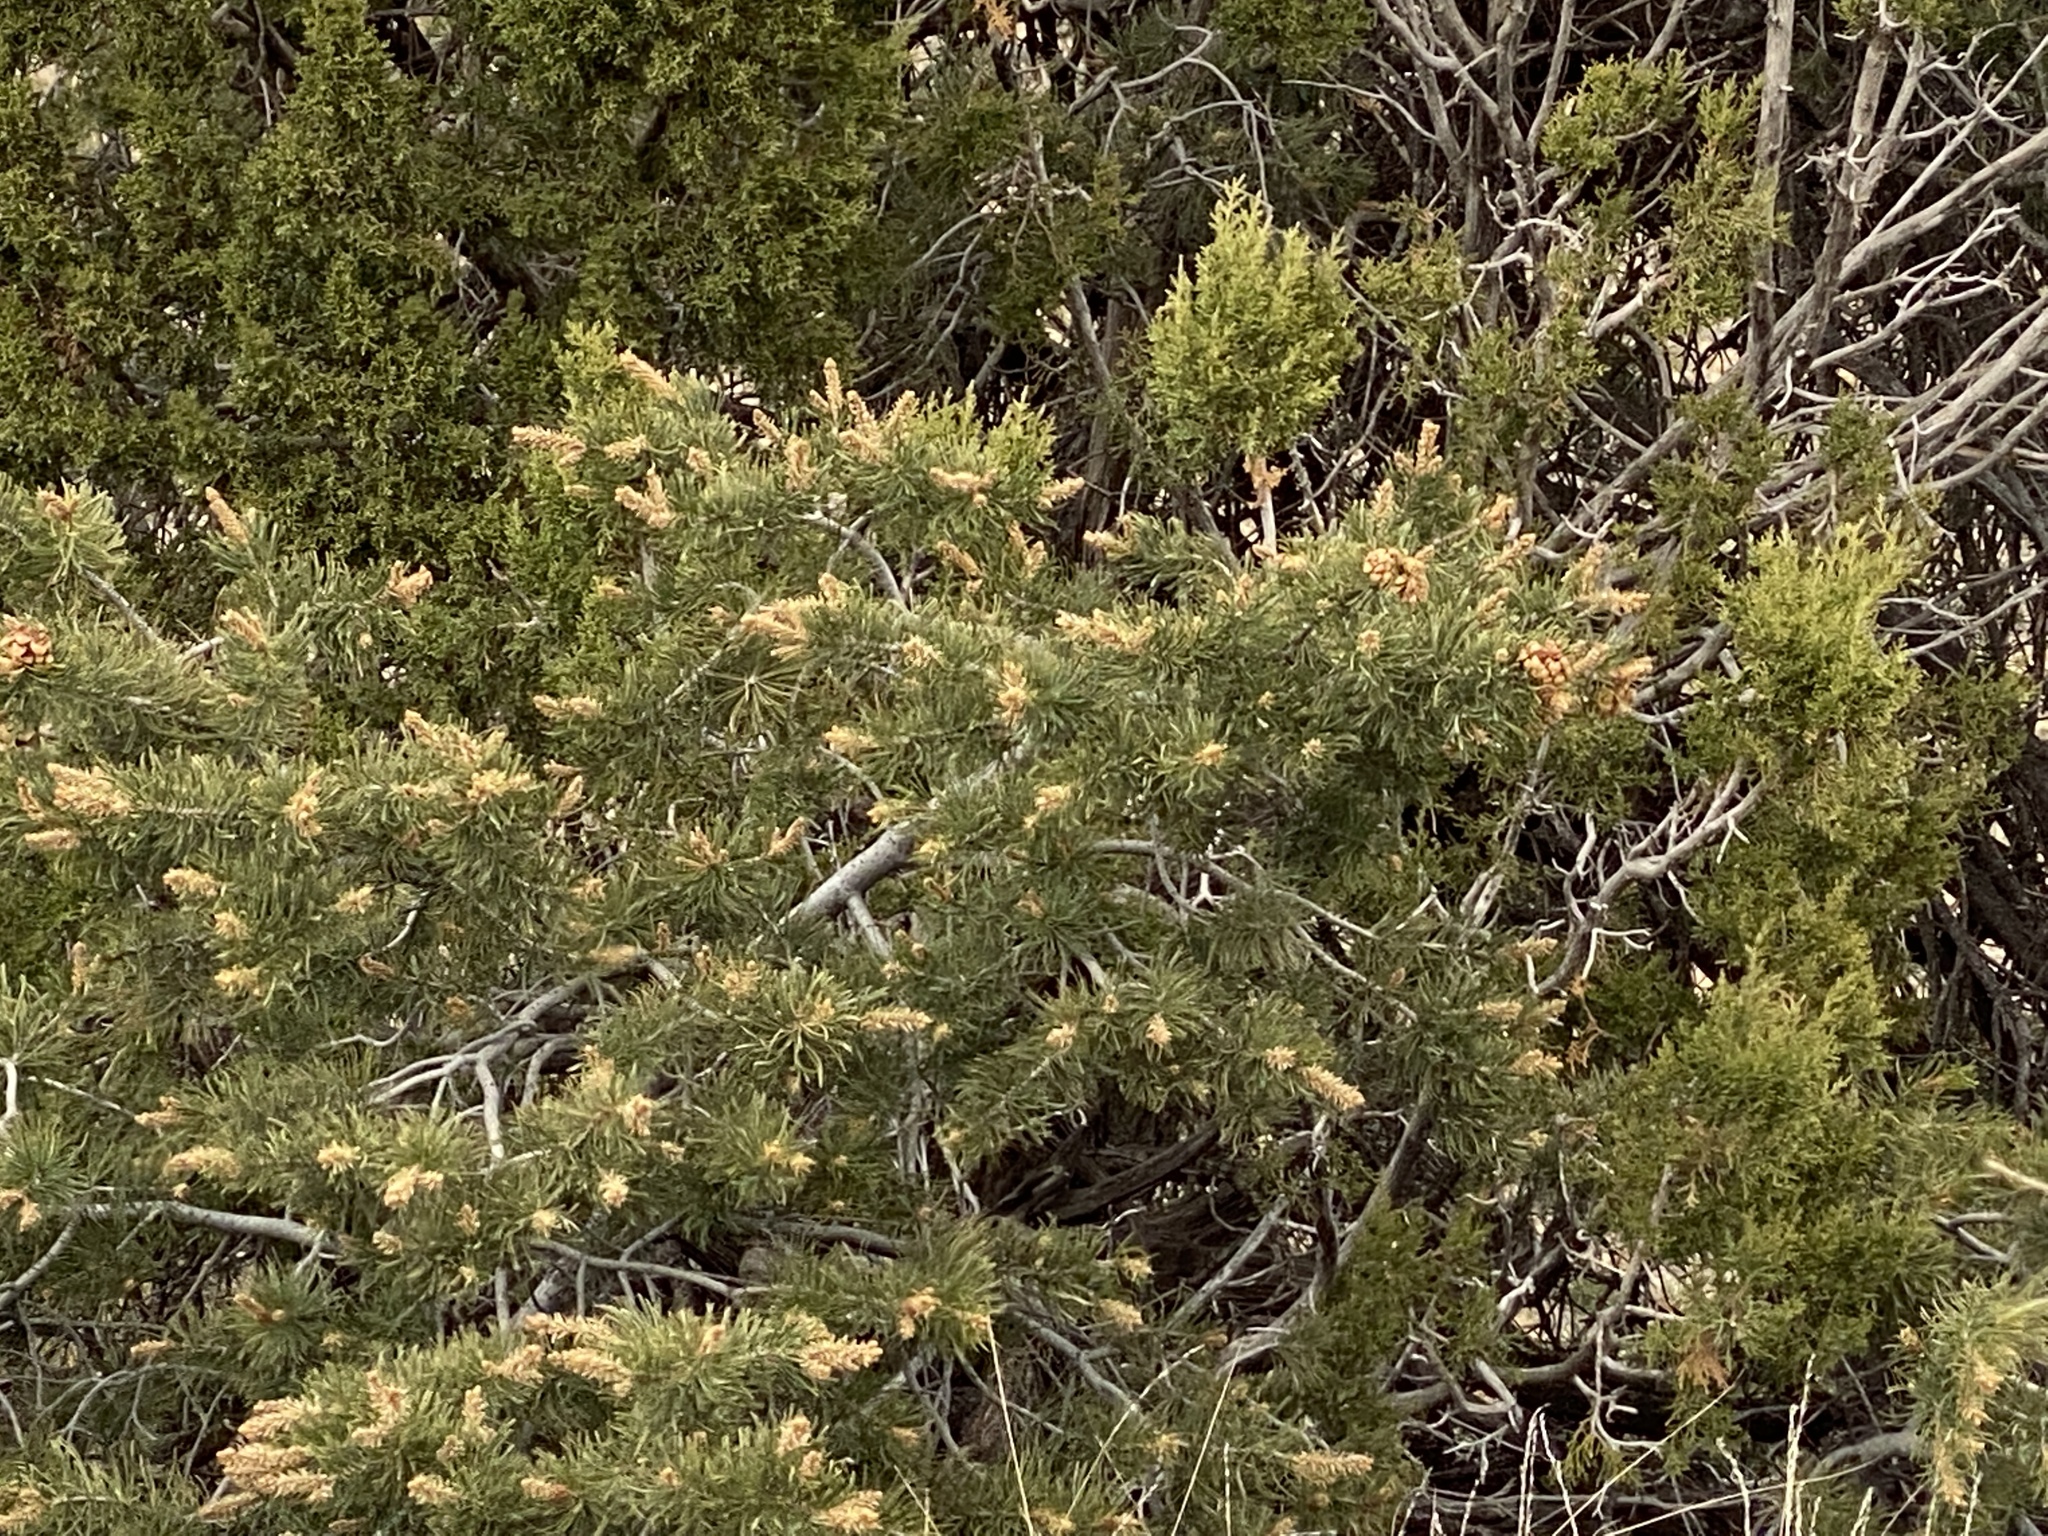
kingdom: Plantae
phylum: Tracheophyta
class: Pinopsida
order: Pinales
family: Pinaceae
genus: Pinus
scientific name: Pinus edulis
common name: Colorado pinyon
